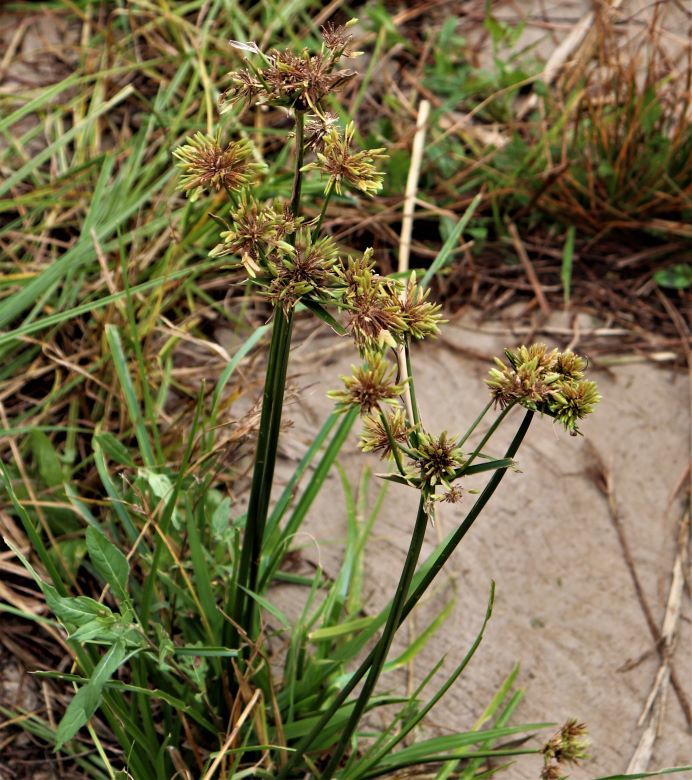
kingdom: Plantae
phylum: Tracheophyta
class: Liliopsida
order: Poales
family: Cyperaceae
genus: Cyperus
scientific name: Cyperus eragrostis
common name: Tall flatsedge
